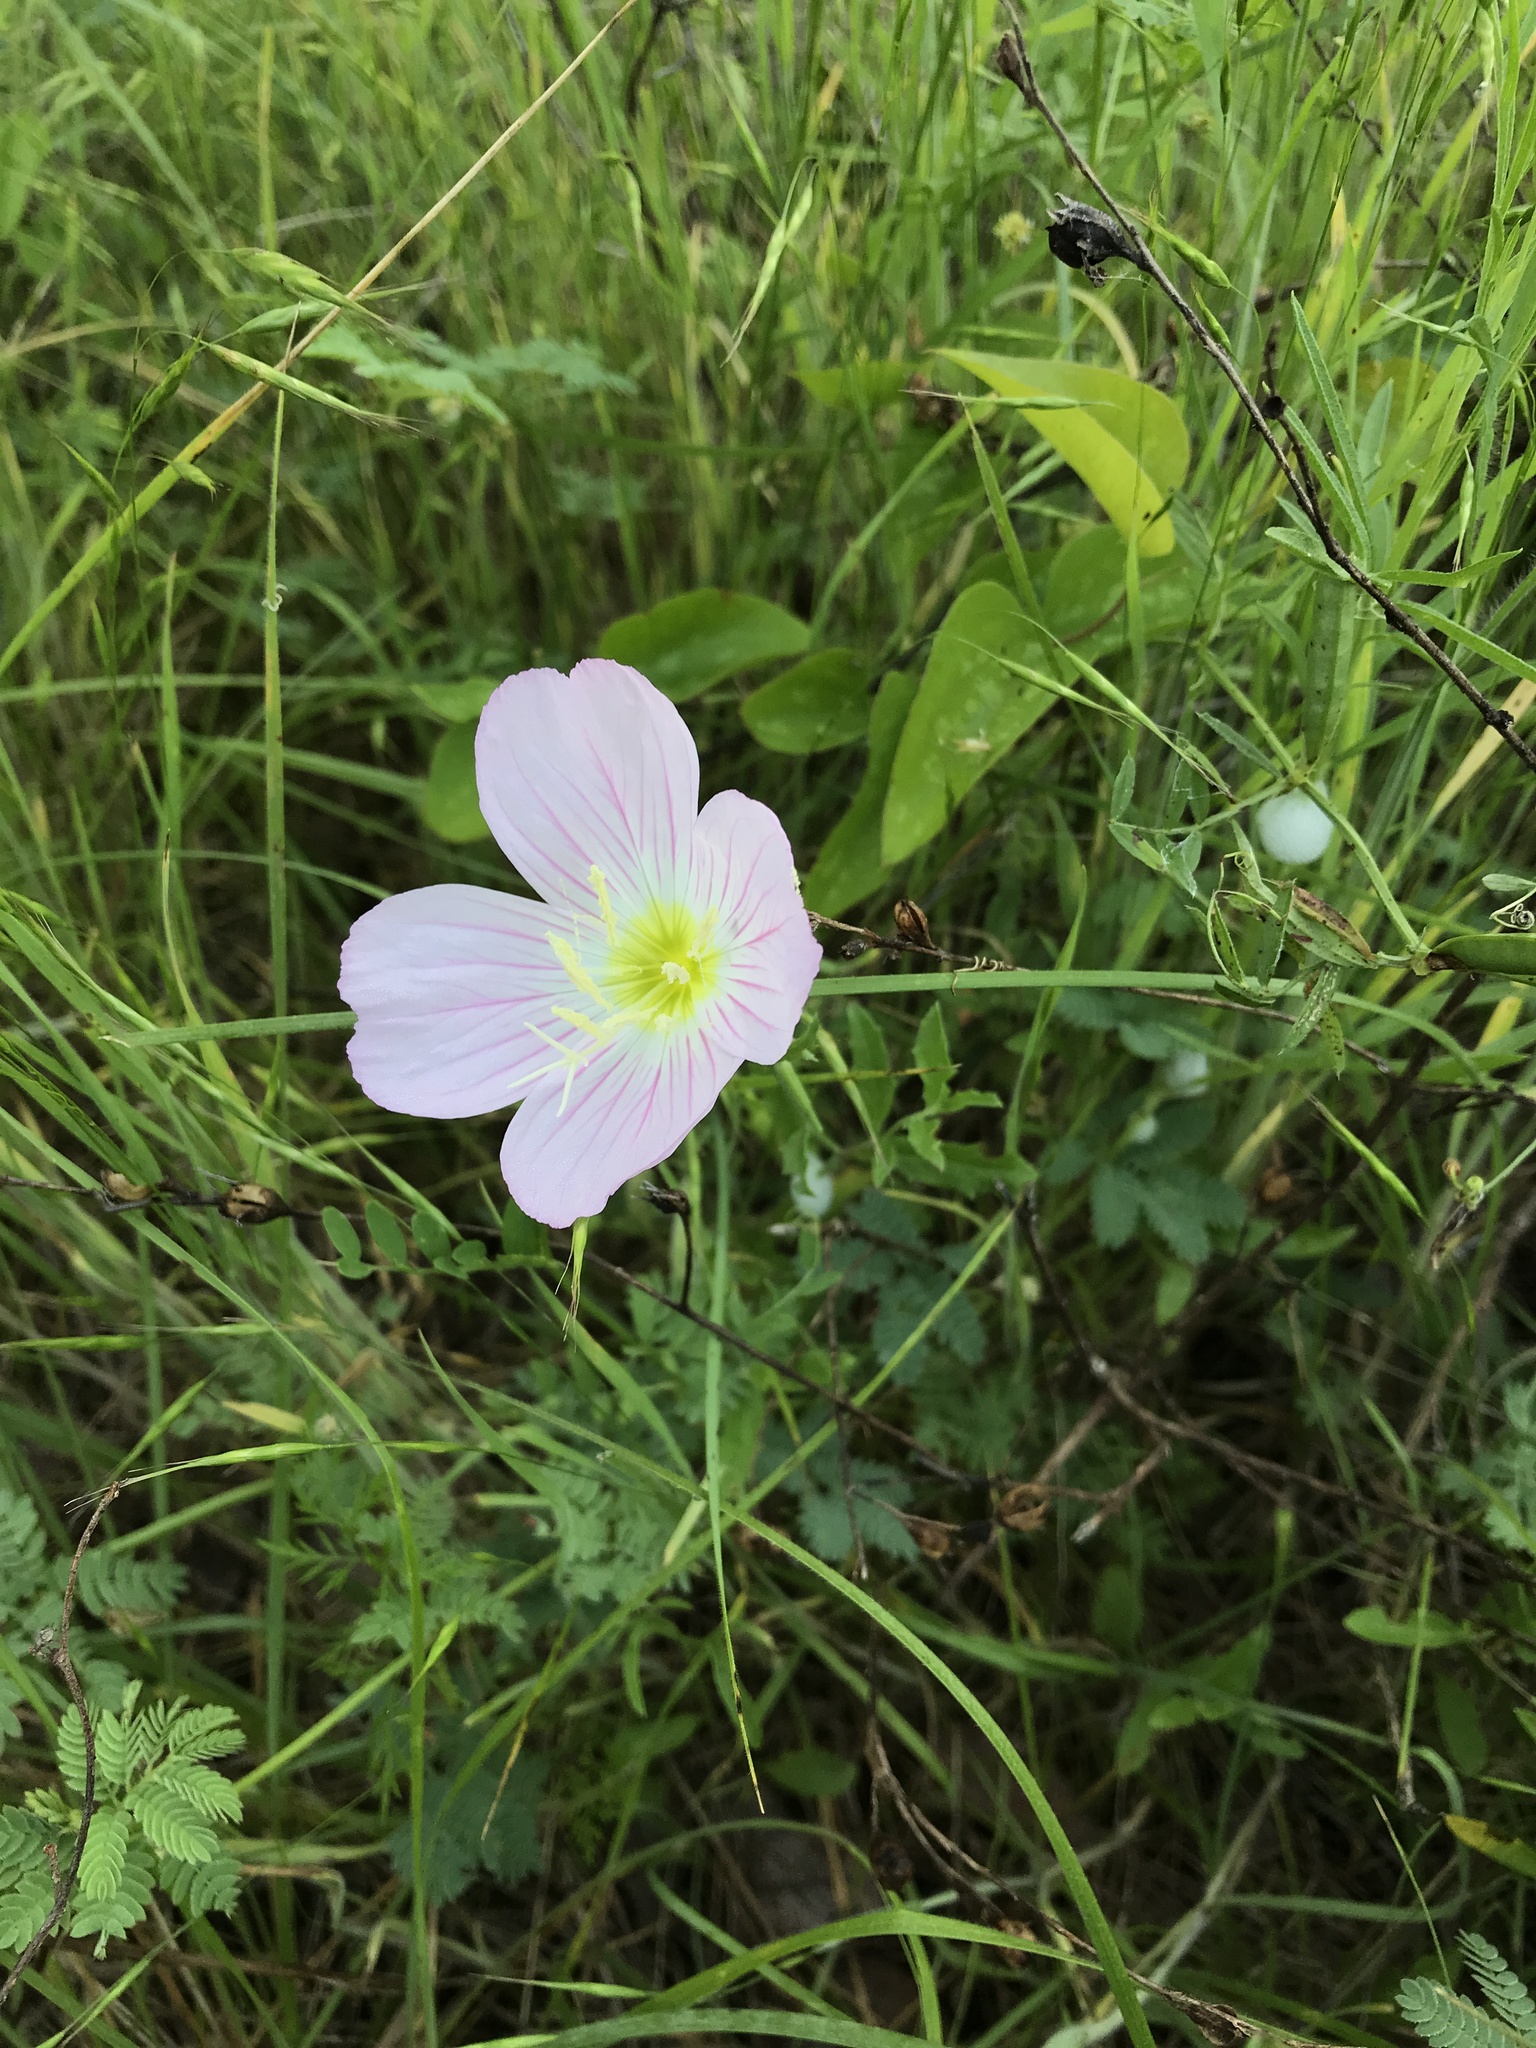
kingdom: Plantae
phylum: Tracheophyta
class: Magnoliopsida
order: Myrtales
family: Onagraceae
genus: Oenothera
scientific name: Oenothera speciosa
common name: White evening-primrose
